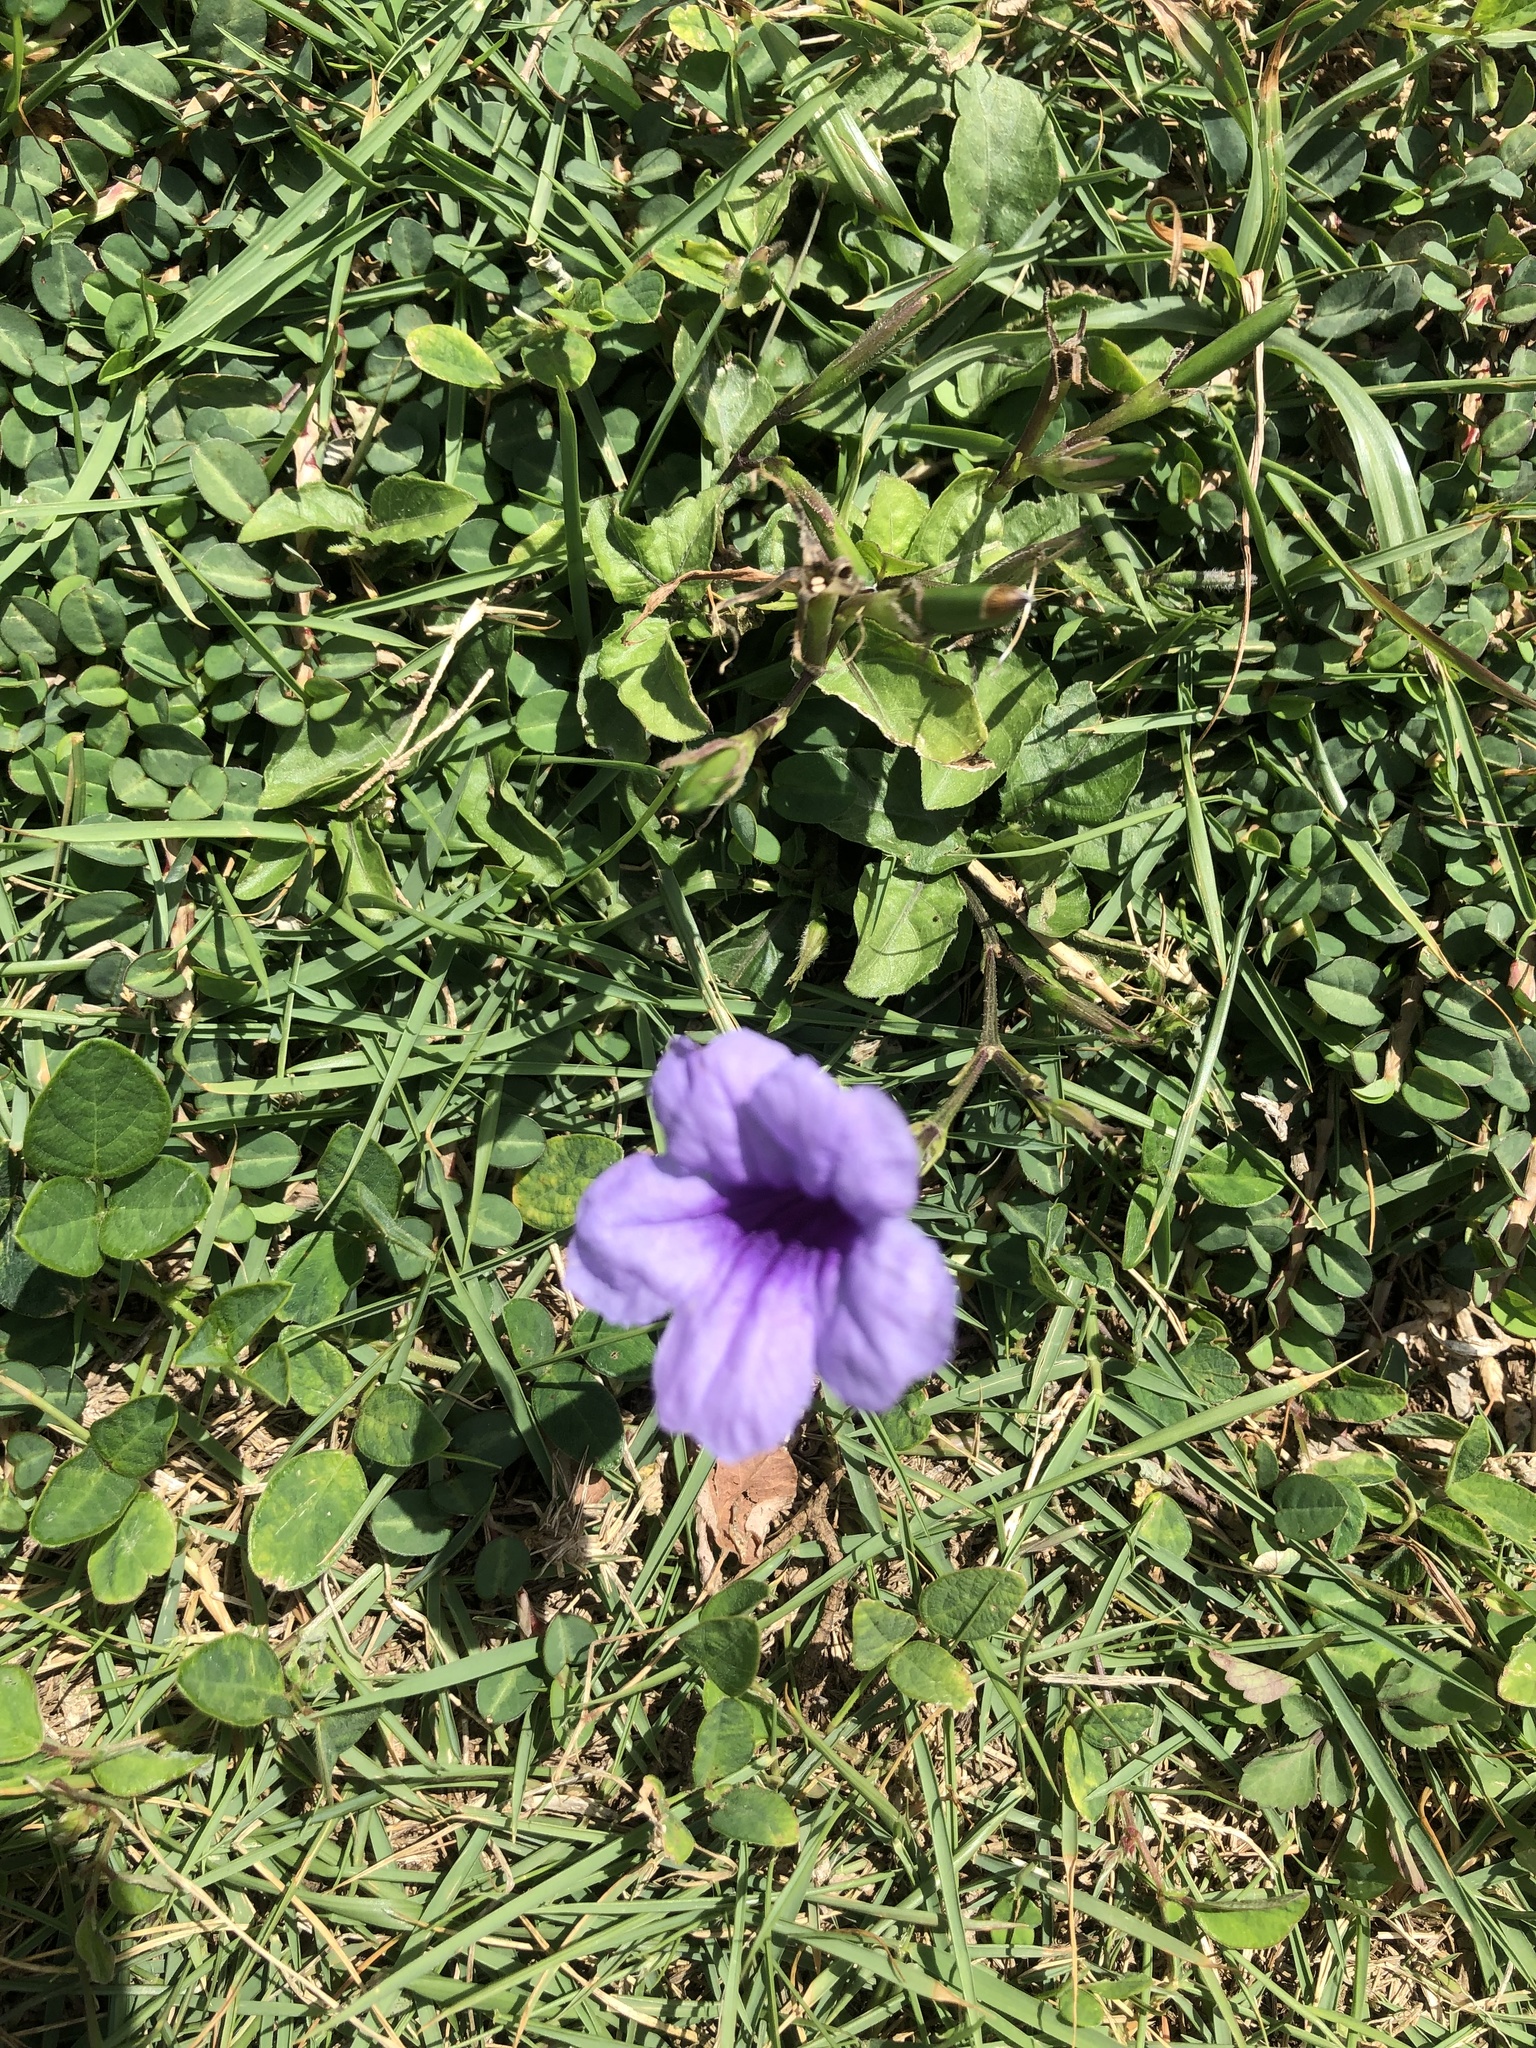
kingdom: Plantae
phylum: Tracheophyta
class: Magnoliopsida
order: Lamiales
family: Acanthaceae
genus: Ruellia
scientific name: Ruellia tuberosa
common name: Devil's bit
